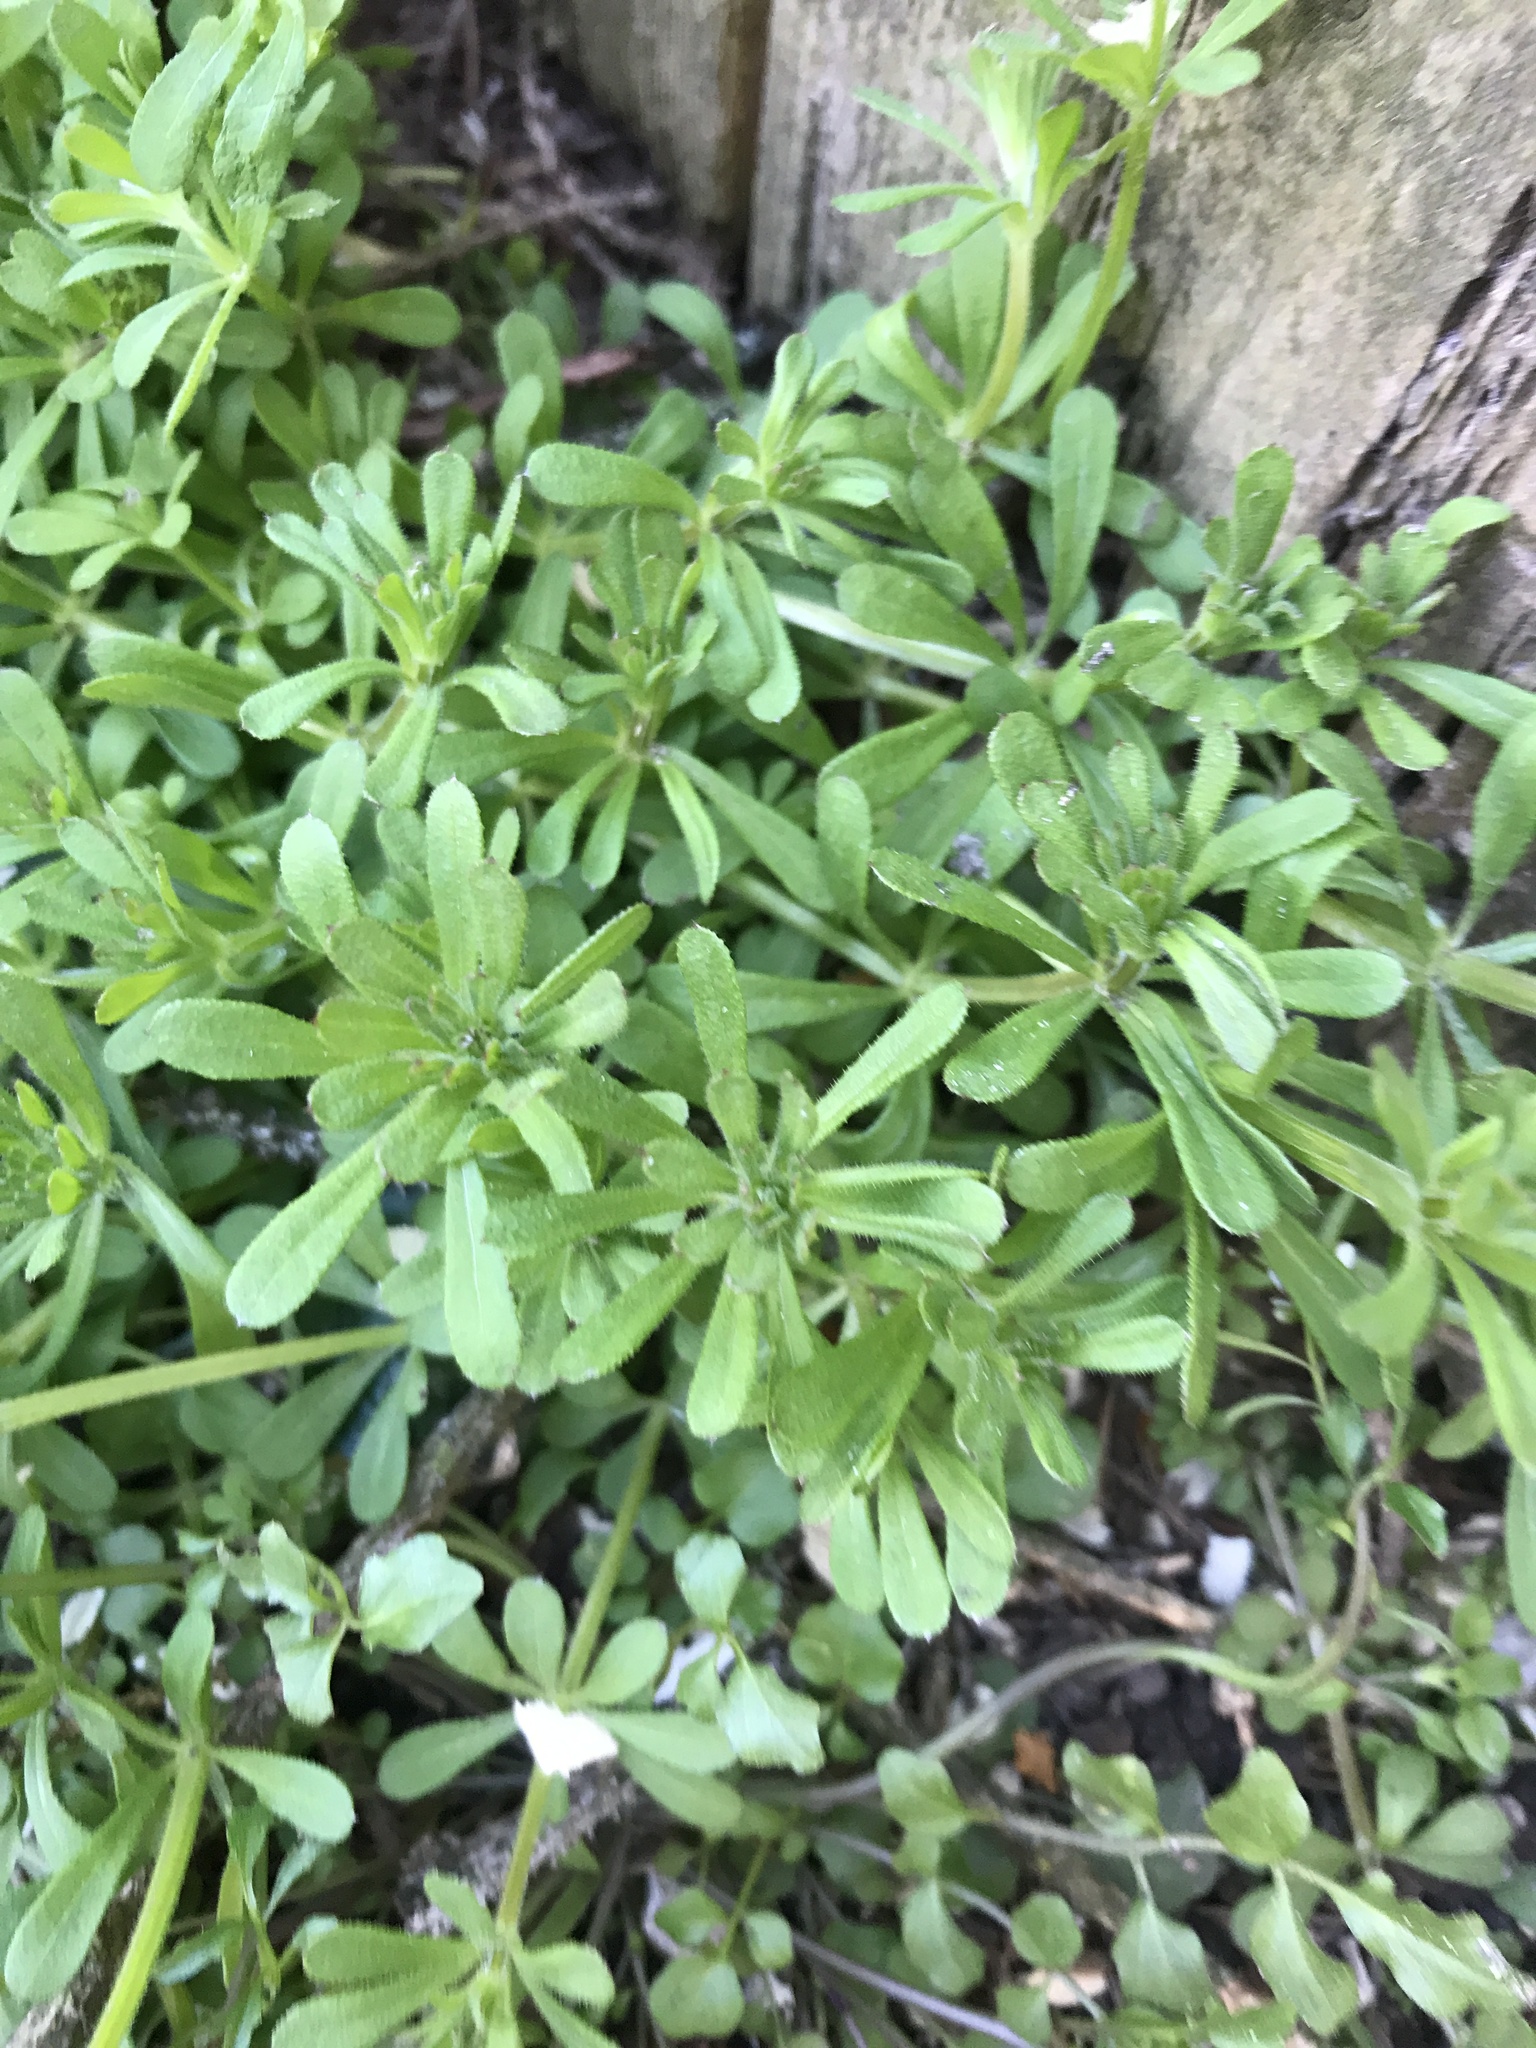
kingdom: Plantae
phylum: Tracheophyta
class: Magnoliopsida
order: Gentianales
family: Rubiaceae
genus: Galium
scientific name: Galium aparine
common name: Cleavers
